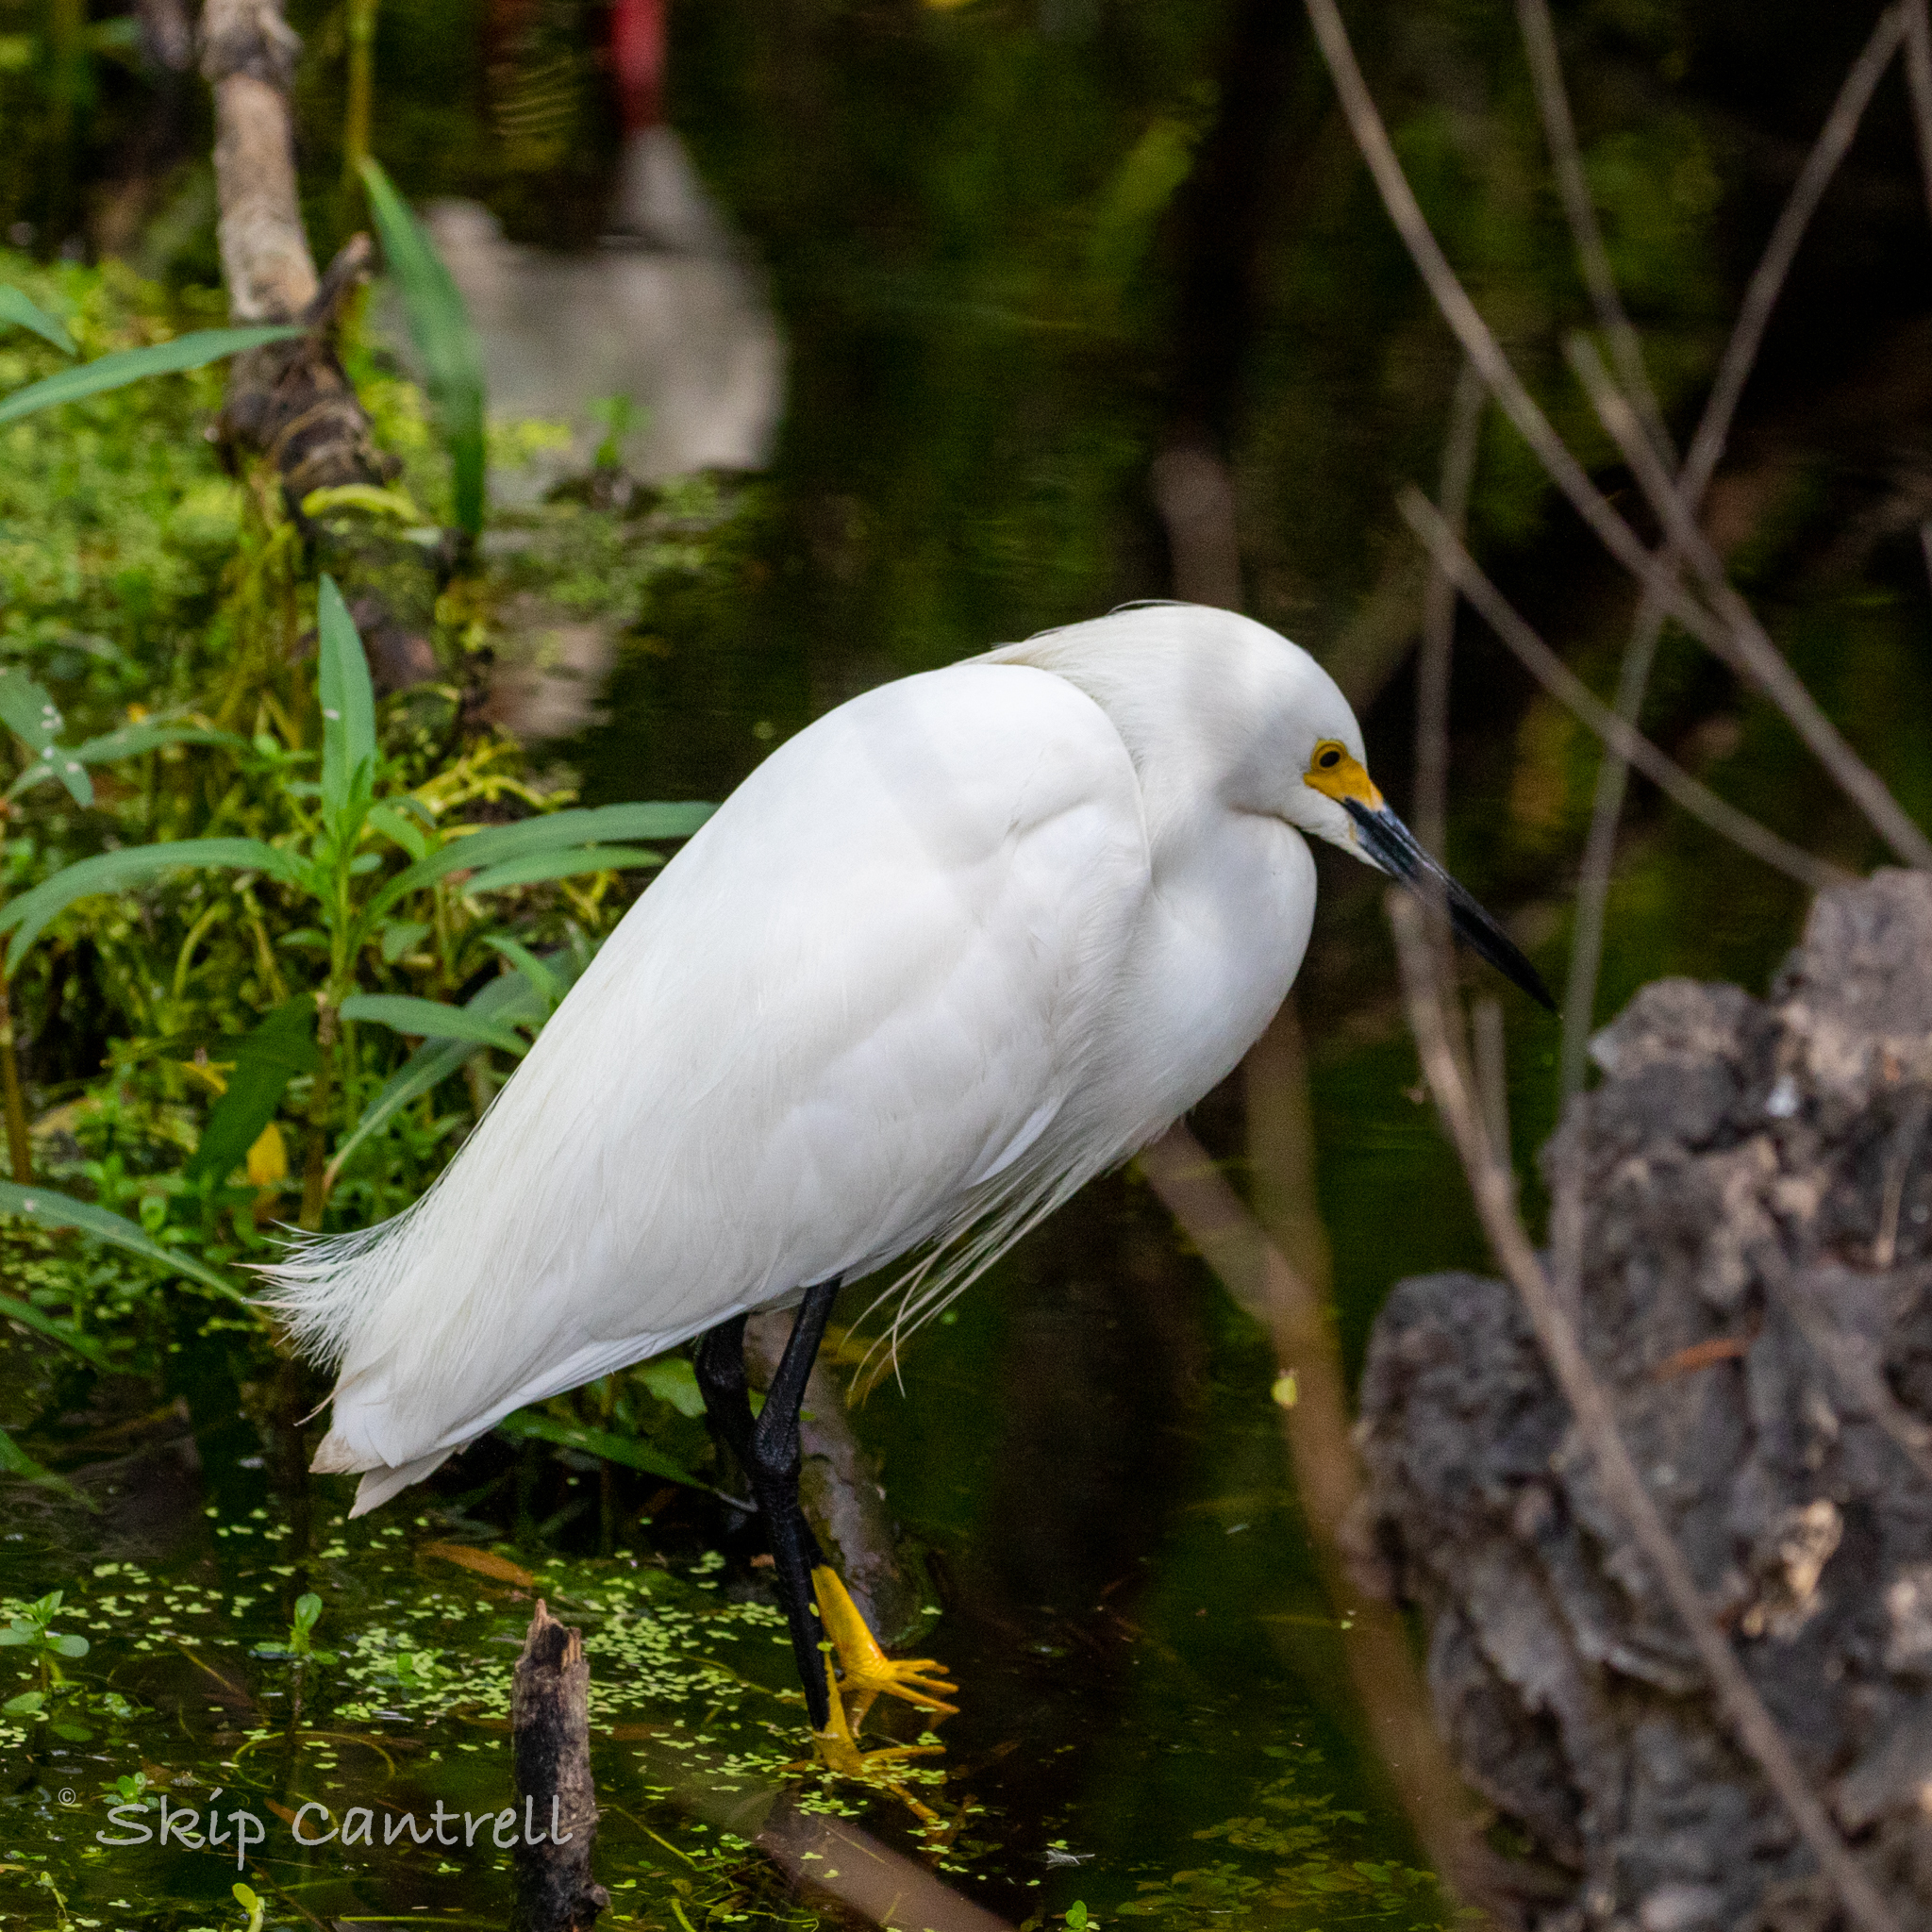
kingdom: Animalia
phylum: Chordata
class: Aves
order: Pelecaniformes
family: Ardeidae
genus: Egretta
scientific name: Egretta thula
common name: Snowy egret
